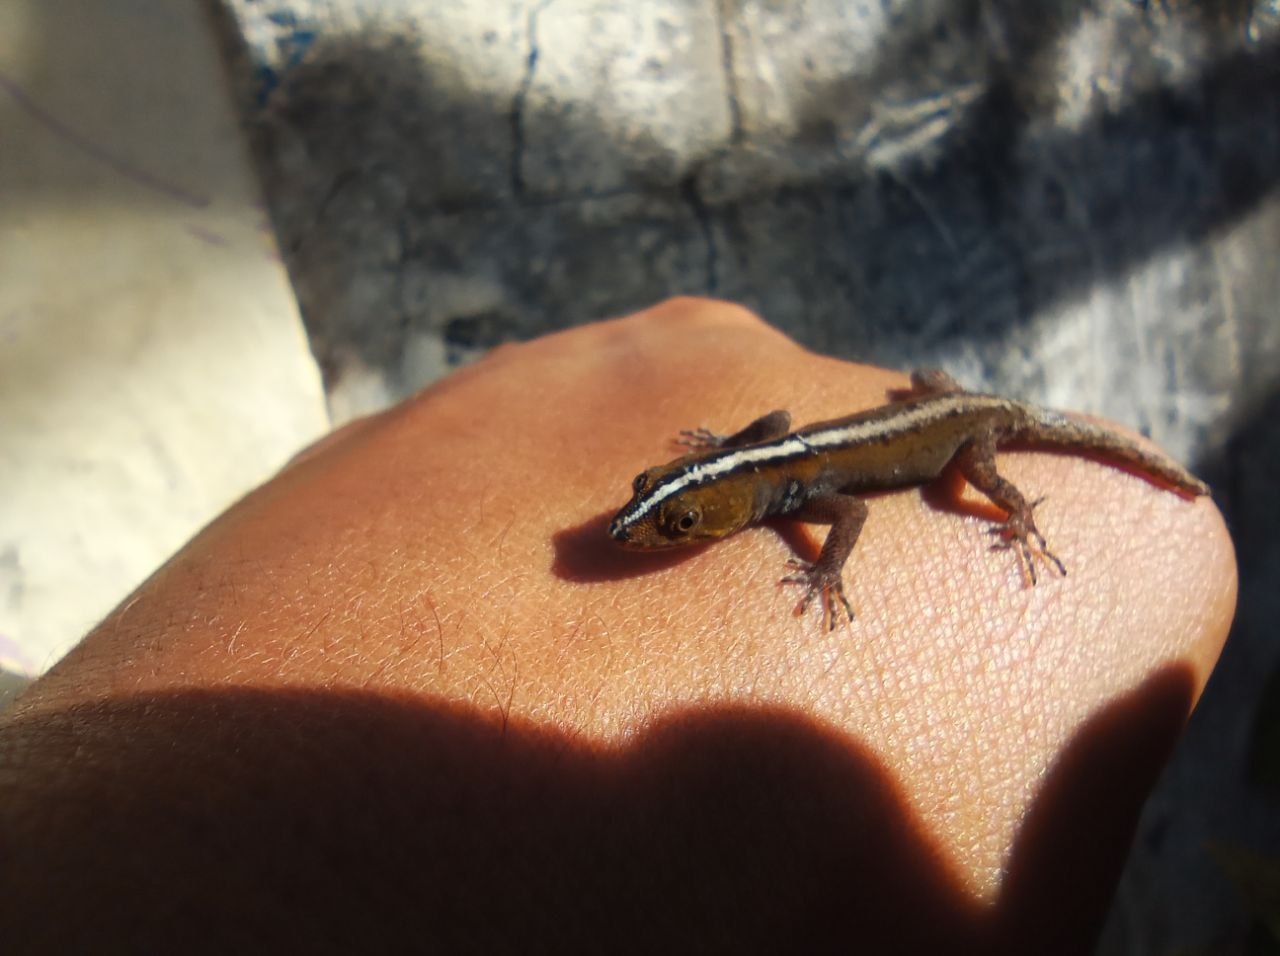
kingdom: Animalia
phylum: Chordata
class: Squamata
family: Sphaerodactylidae
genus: Gonatodes
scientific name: Gonatodes vittatus
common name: Wiegmann's striped gecko
